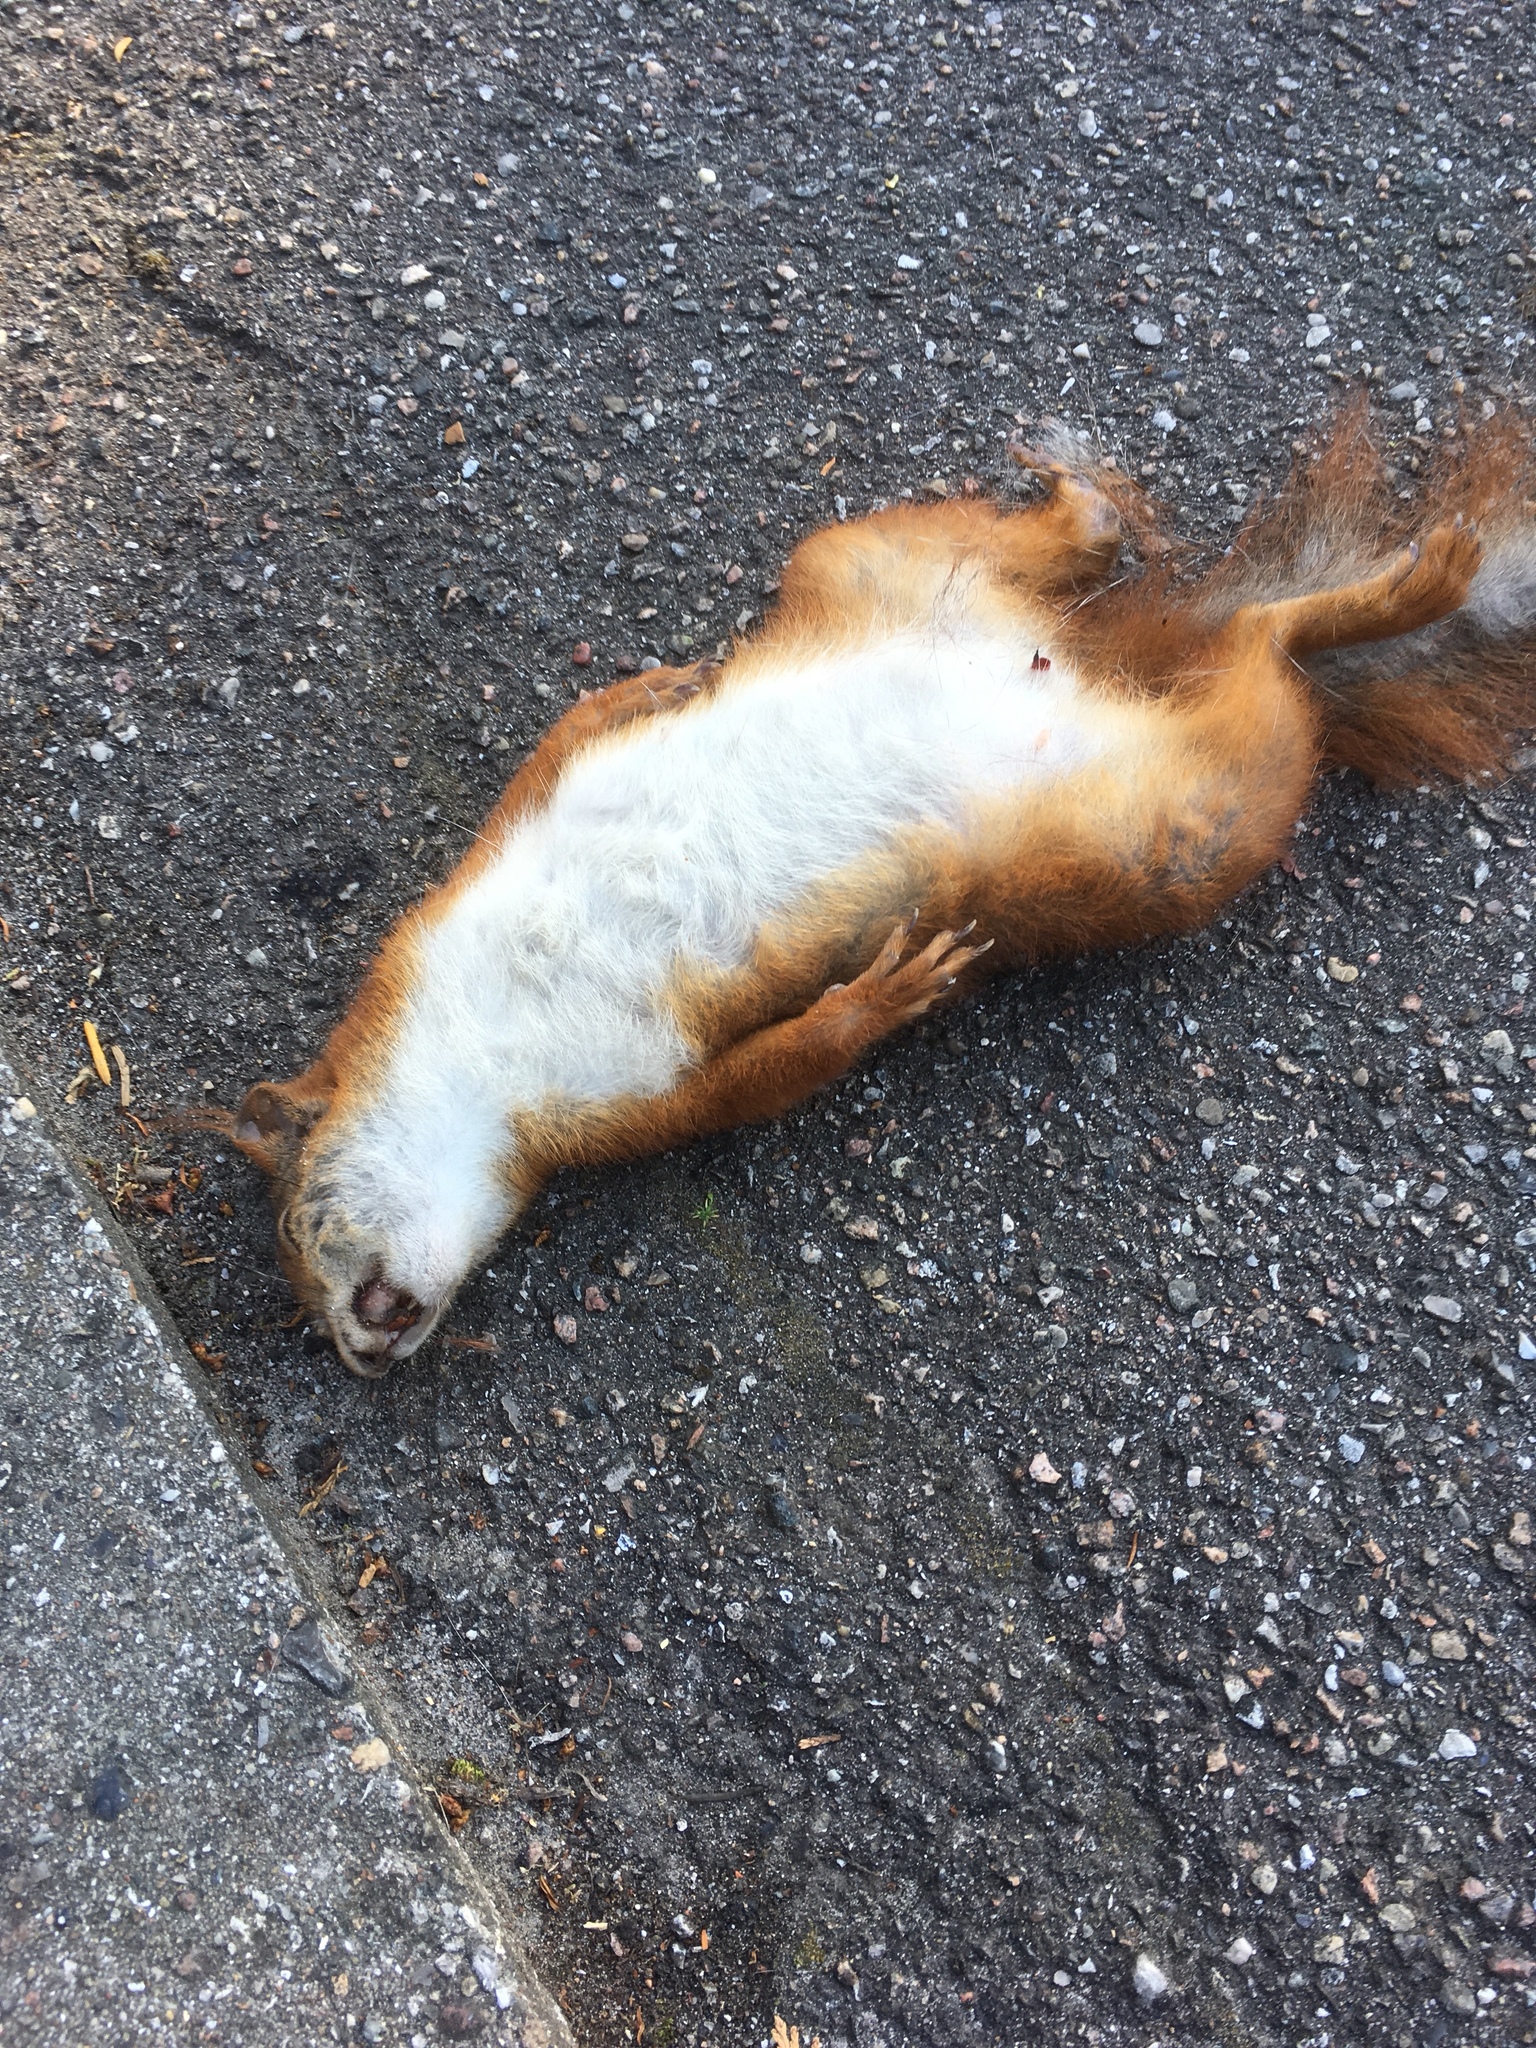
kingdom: Animalia
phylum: Chordata
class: Mammalia
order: Rodentia
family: Sciuridae
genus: Sciurus
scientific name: Sciurus vulgaris
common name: Eurasian red squirrel
